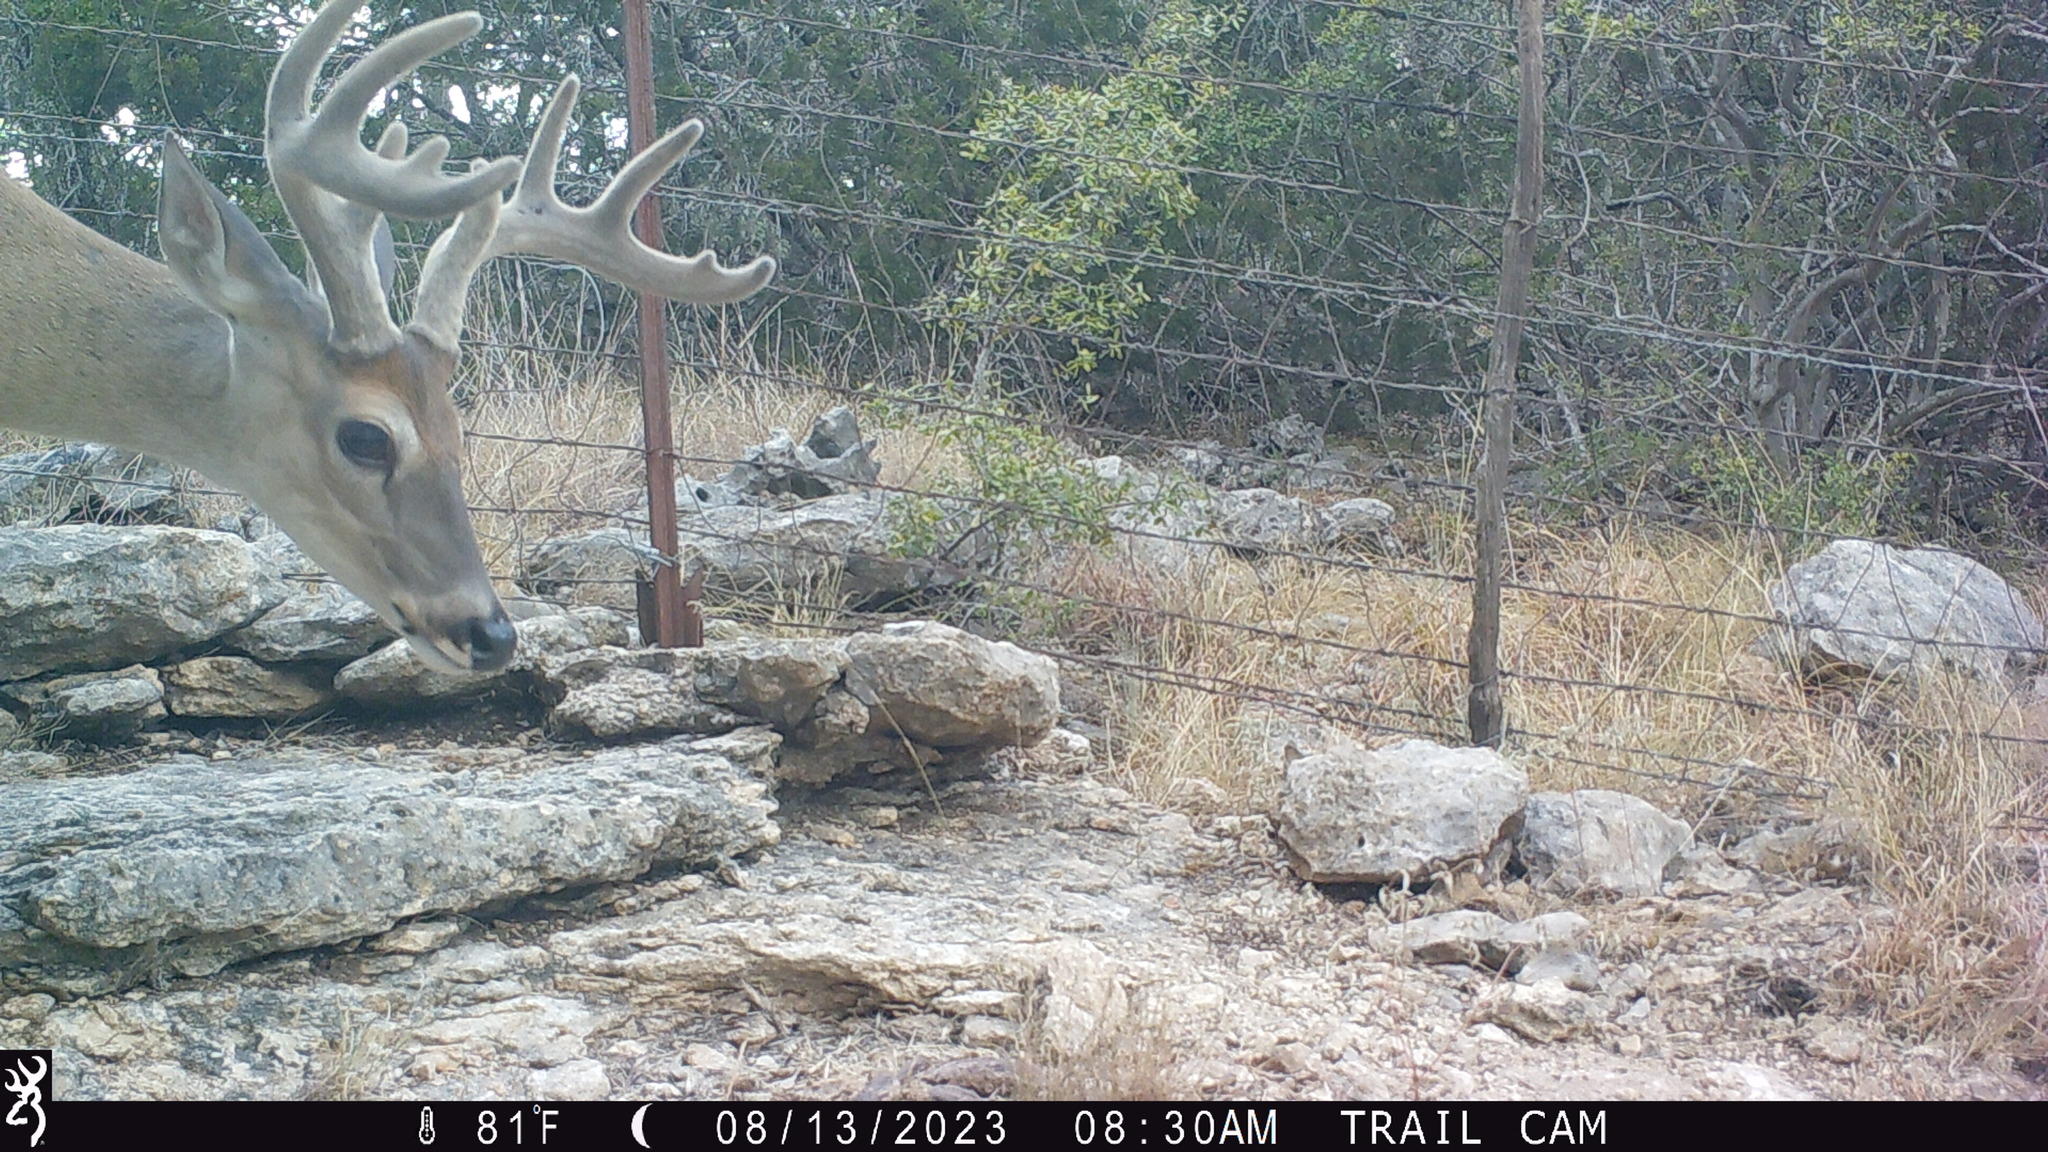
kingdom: Animalia
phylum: Chordata
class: Mammalia
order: Artiodactyla
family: Cervidae
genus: Odocoileus
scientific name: Odocoileus virginianus
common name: White-tailed deer
